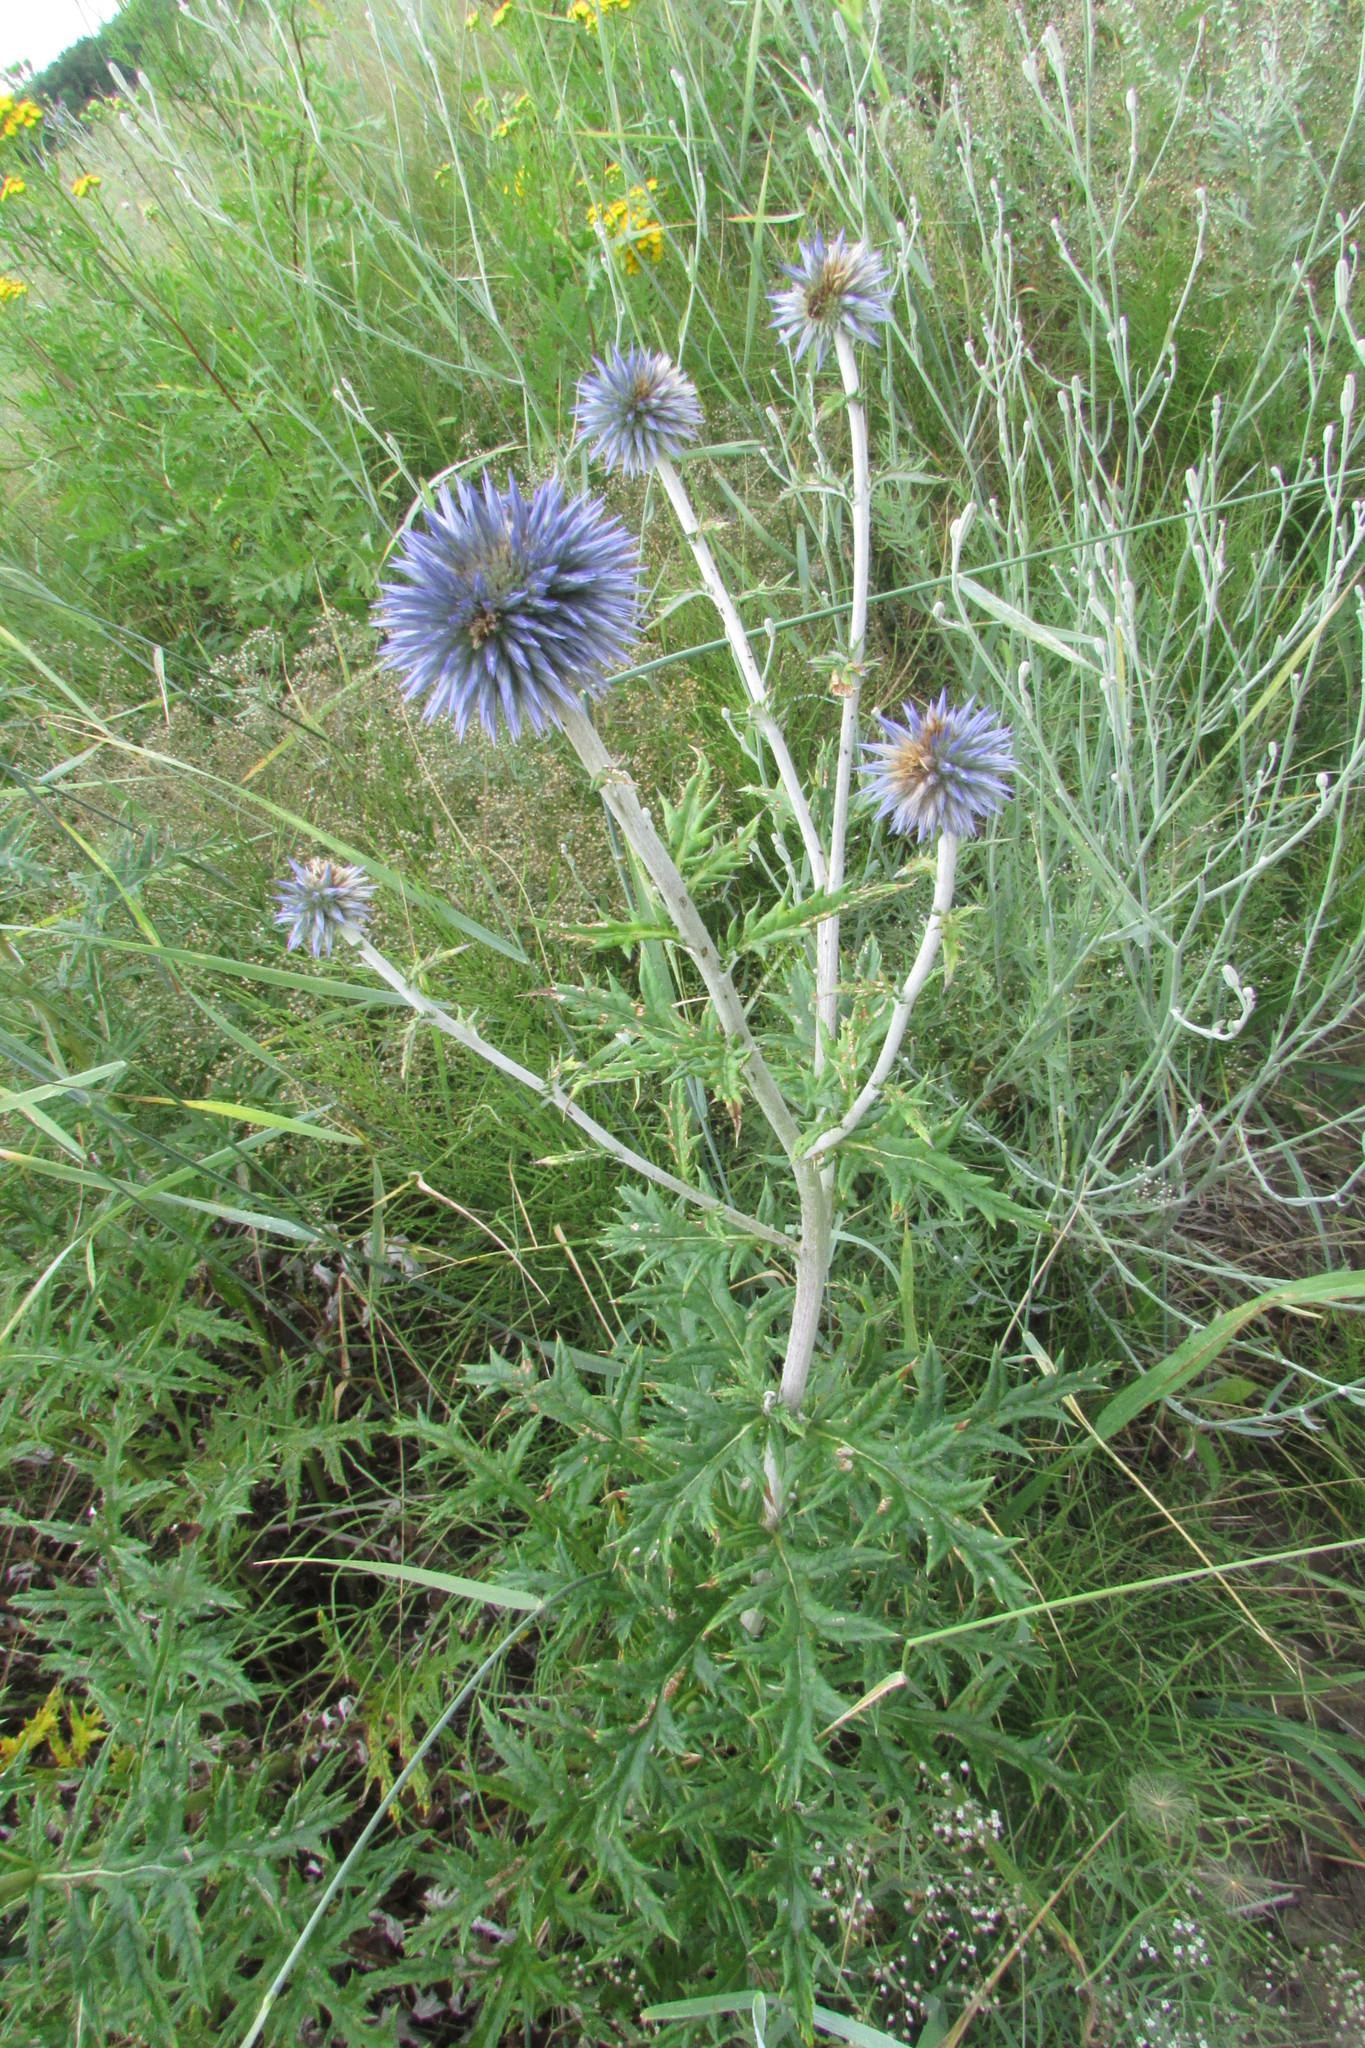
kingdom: Plantae
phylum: Tracheophyta
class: Magnoliopsida
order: Asterales
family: Asteraceae
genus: Echinops
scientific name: Echinops ritro
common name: Globe thistle
